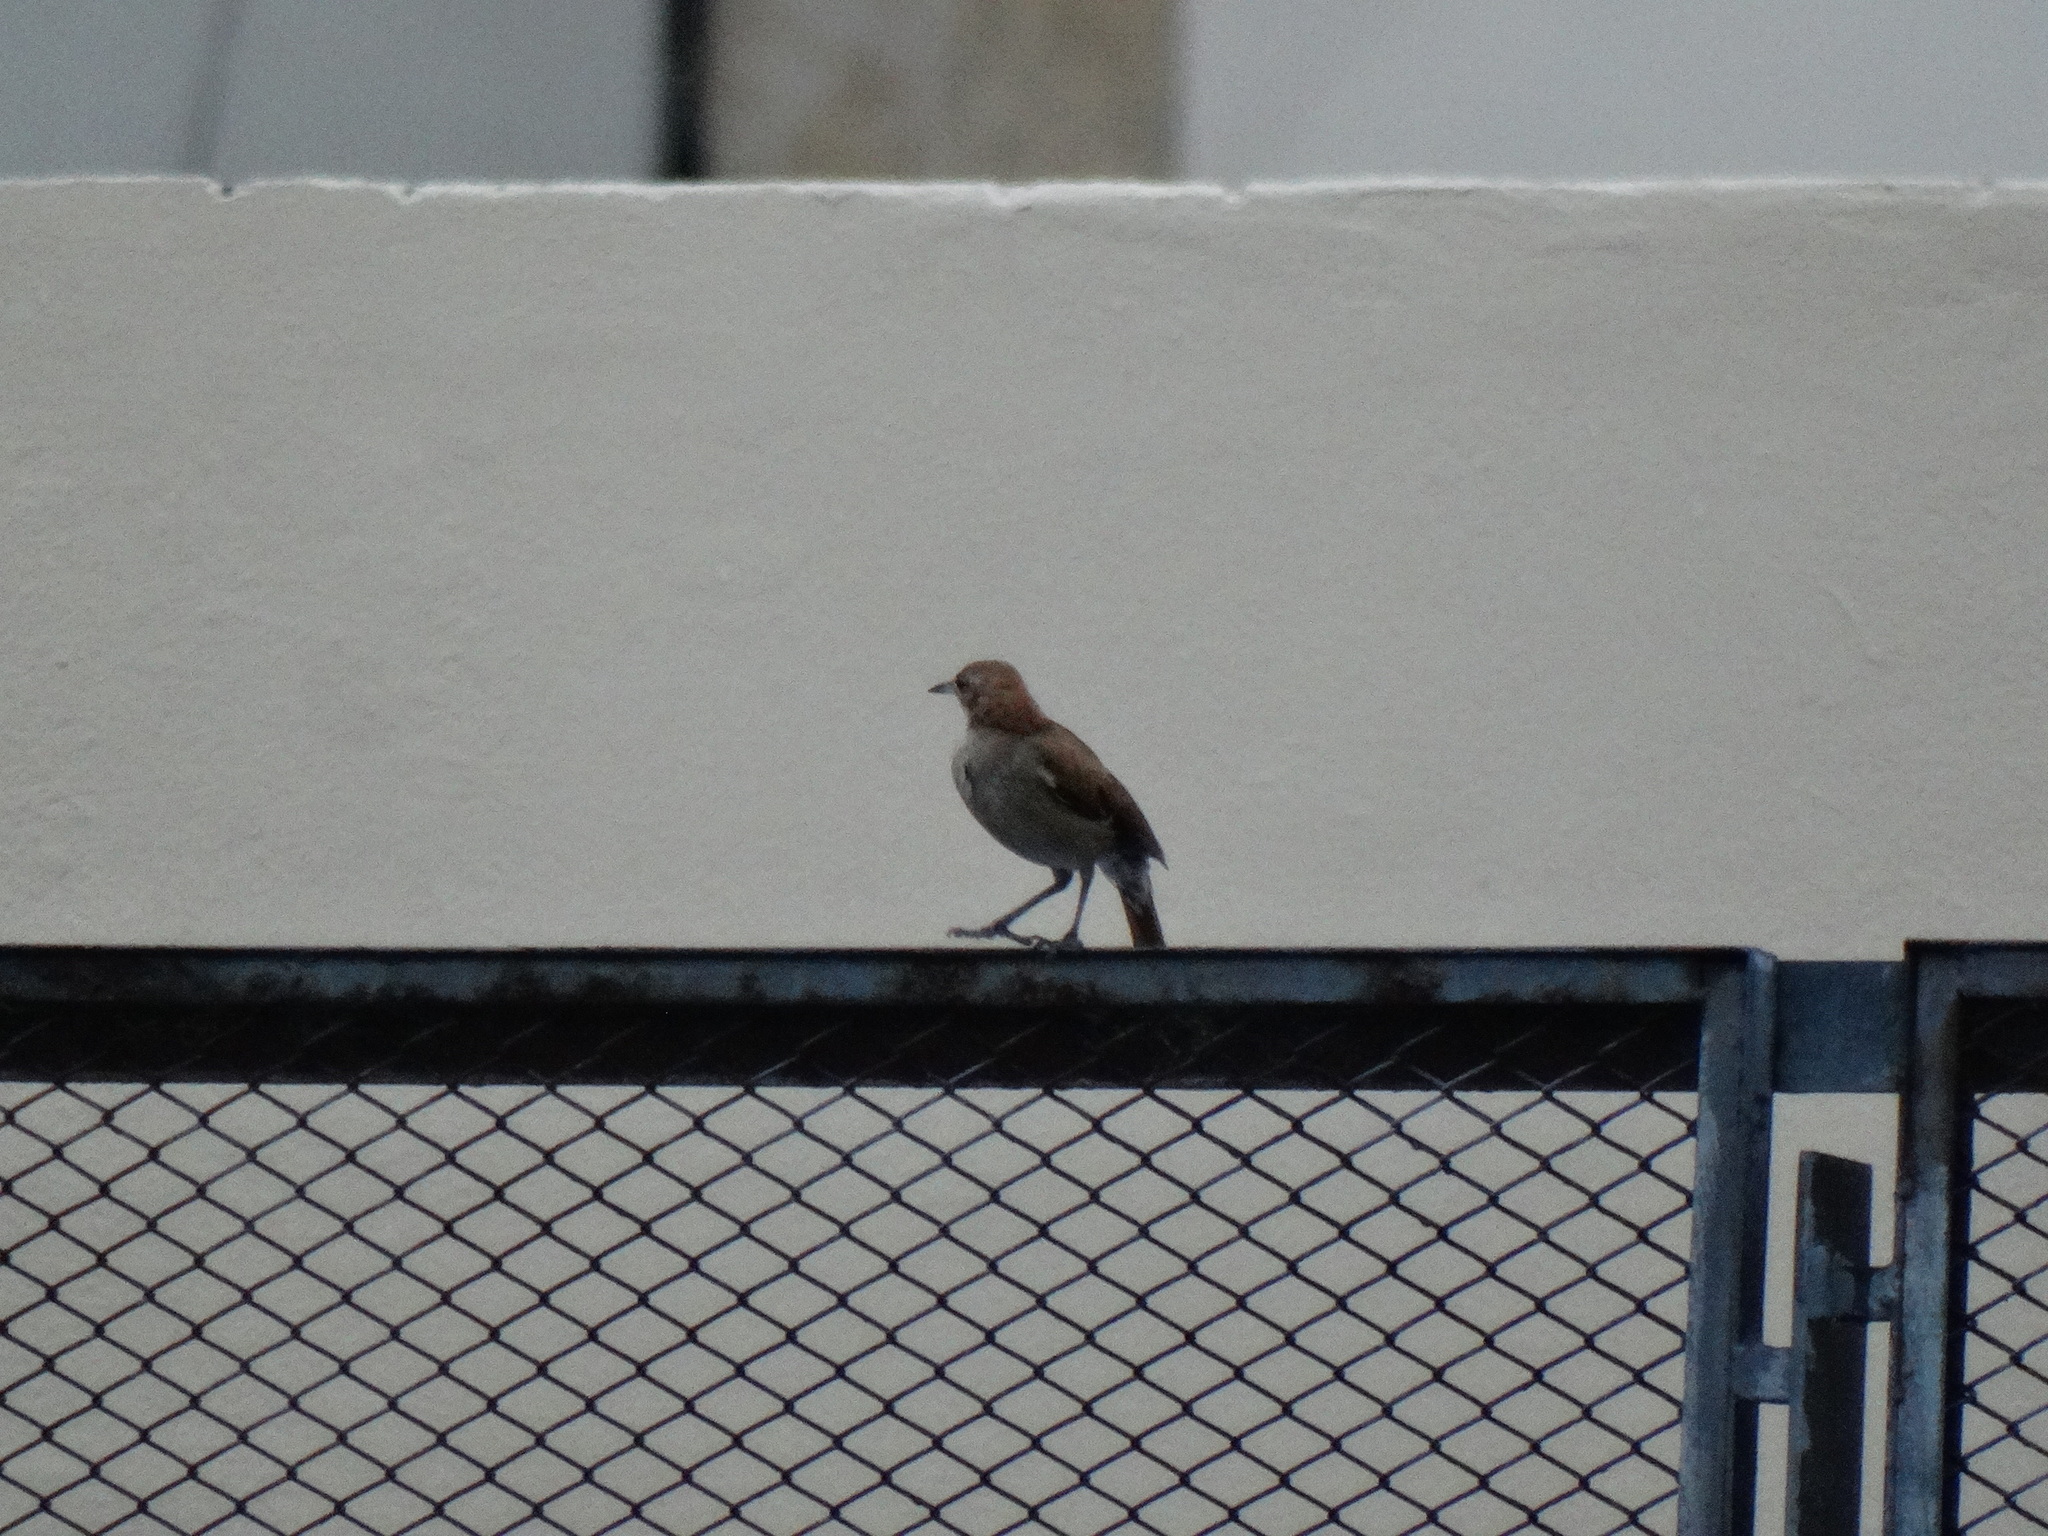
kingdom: Animalia
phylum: Chordata
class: Aves
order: Passeriformes
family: Furnariidae
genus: Furnarius
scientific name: Furnarius rufus
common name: Rufous hornero
